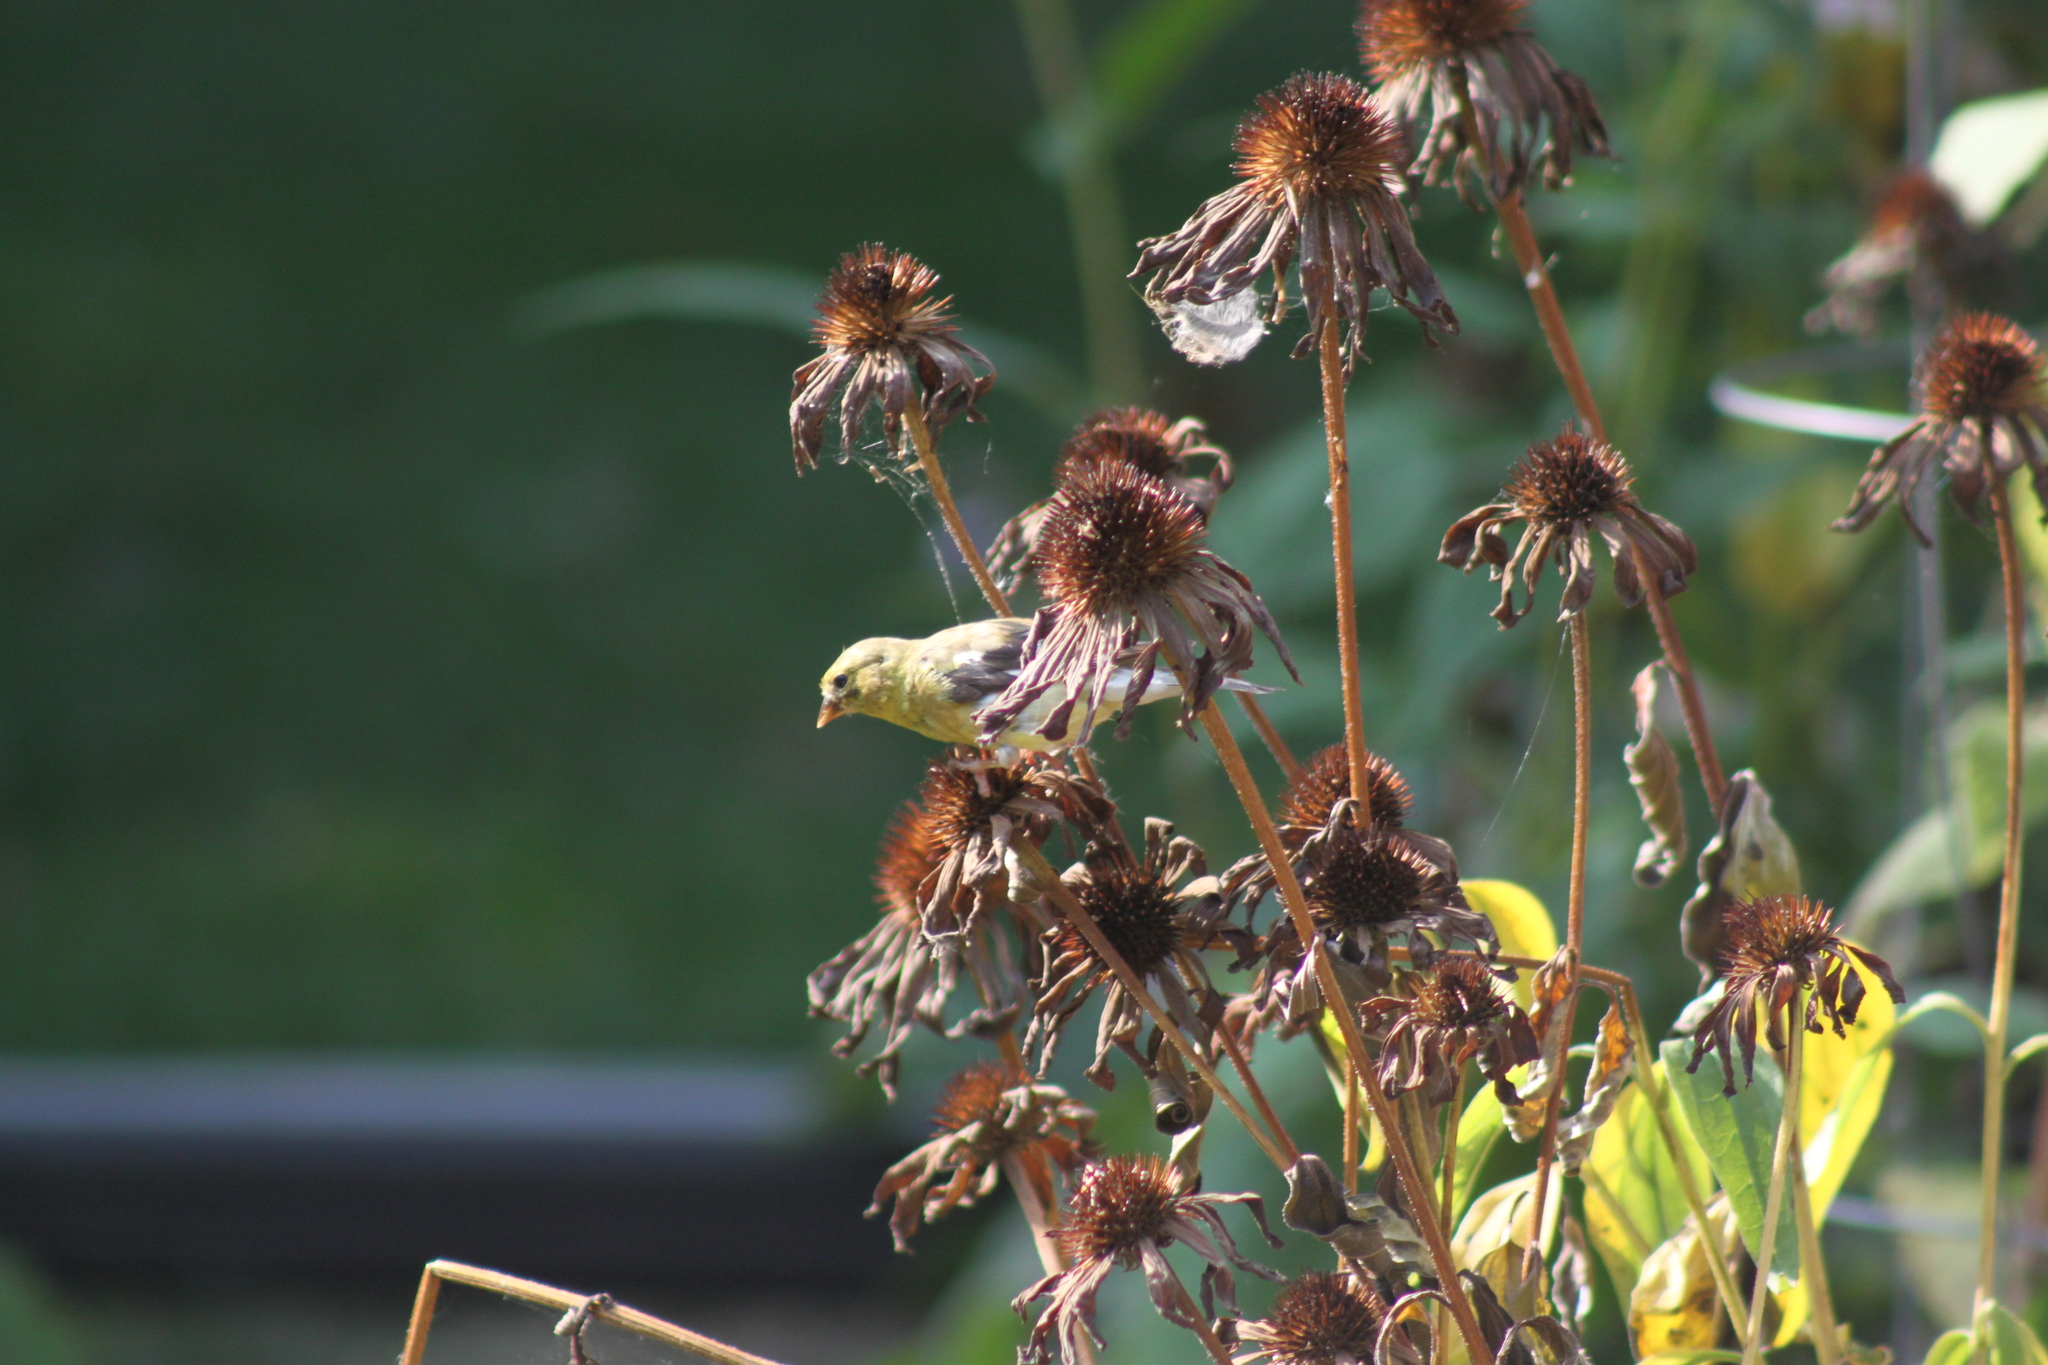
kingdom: Animalia
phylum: Chordata
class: Aves
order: Passeriformes
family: Fringillidae
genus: Spinus
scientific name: Spinus tristis
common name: American goldfinch
